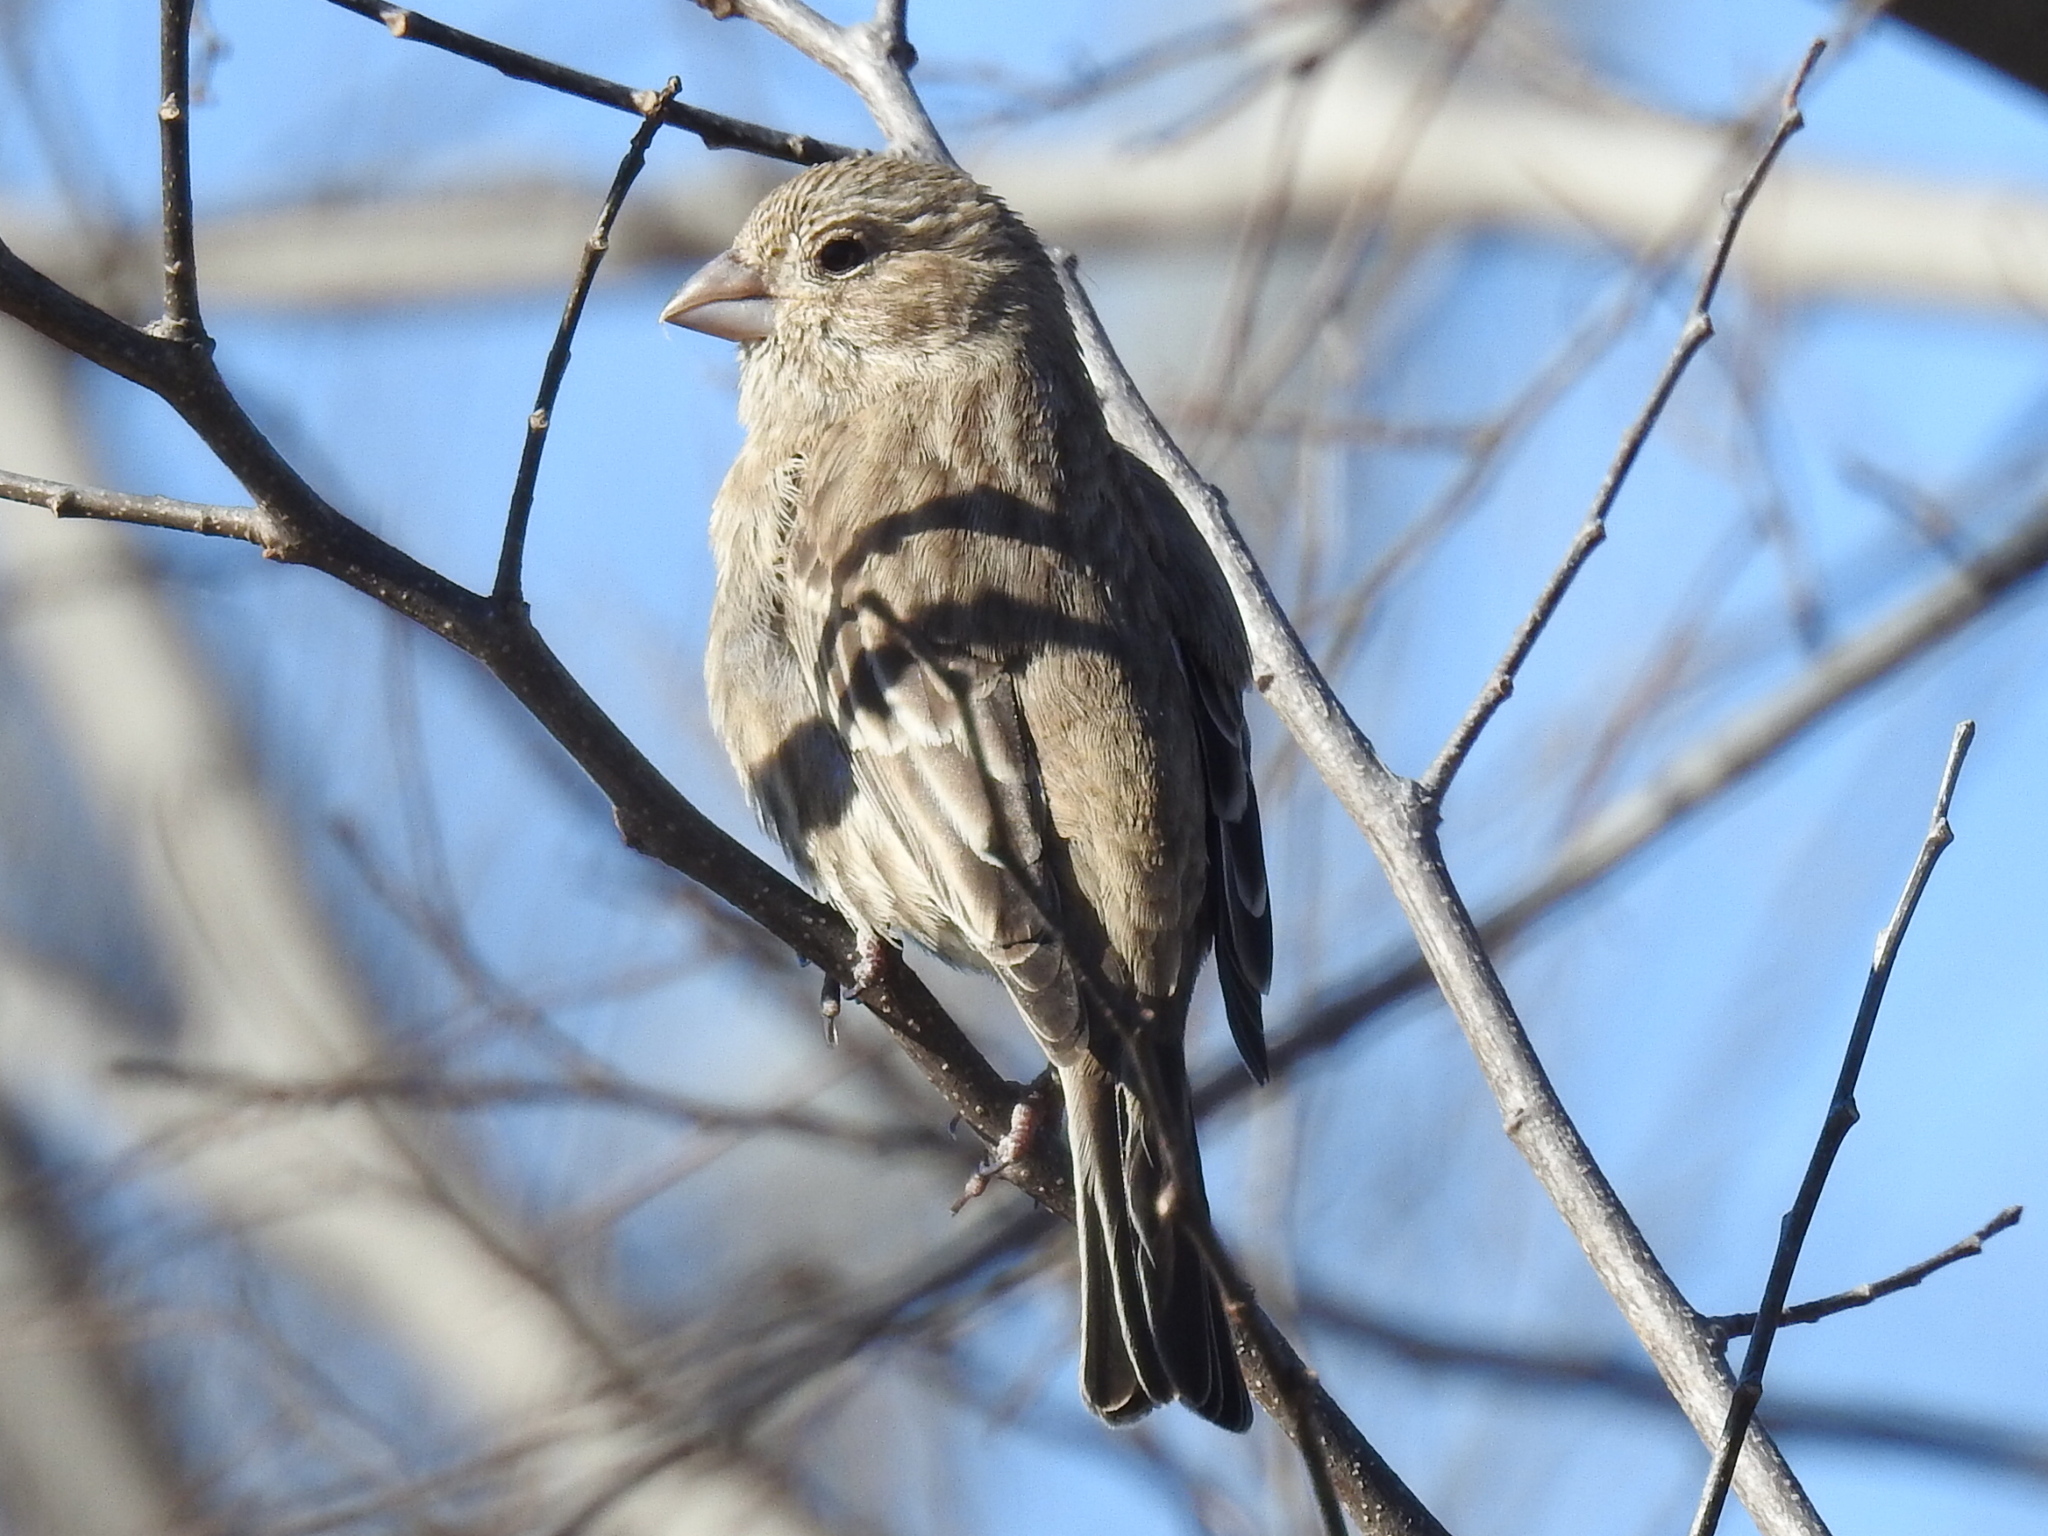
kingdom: Animalia
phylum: Chordata
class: Aves
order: Passeriformes
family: Fringillidae
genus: Haemorhous
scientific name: Haemorhous mexicanus
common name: House finch
